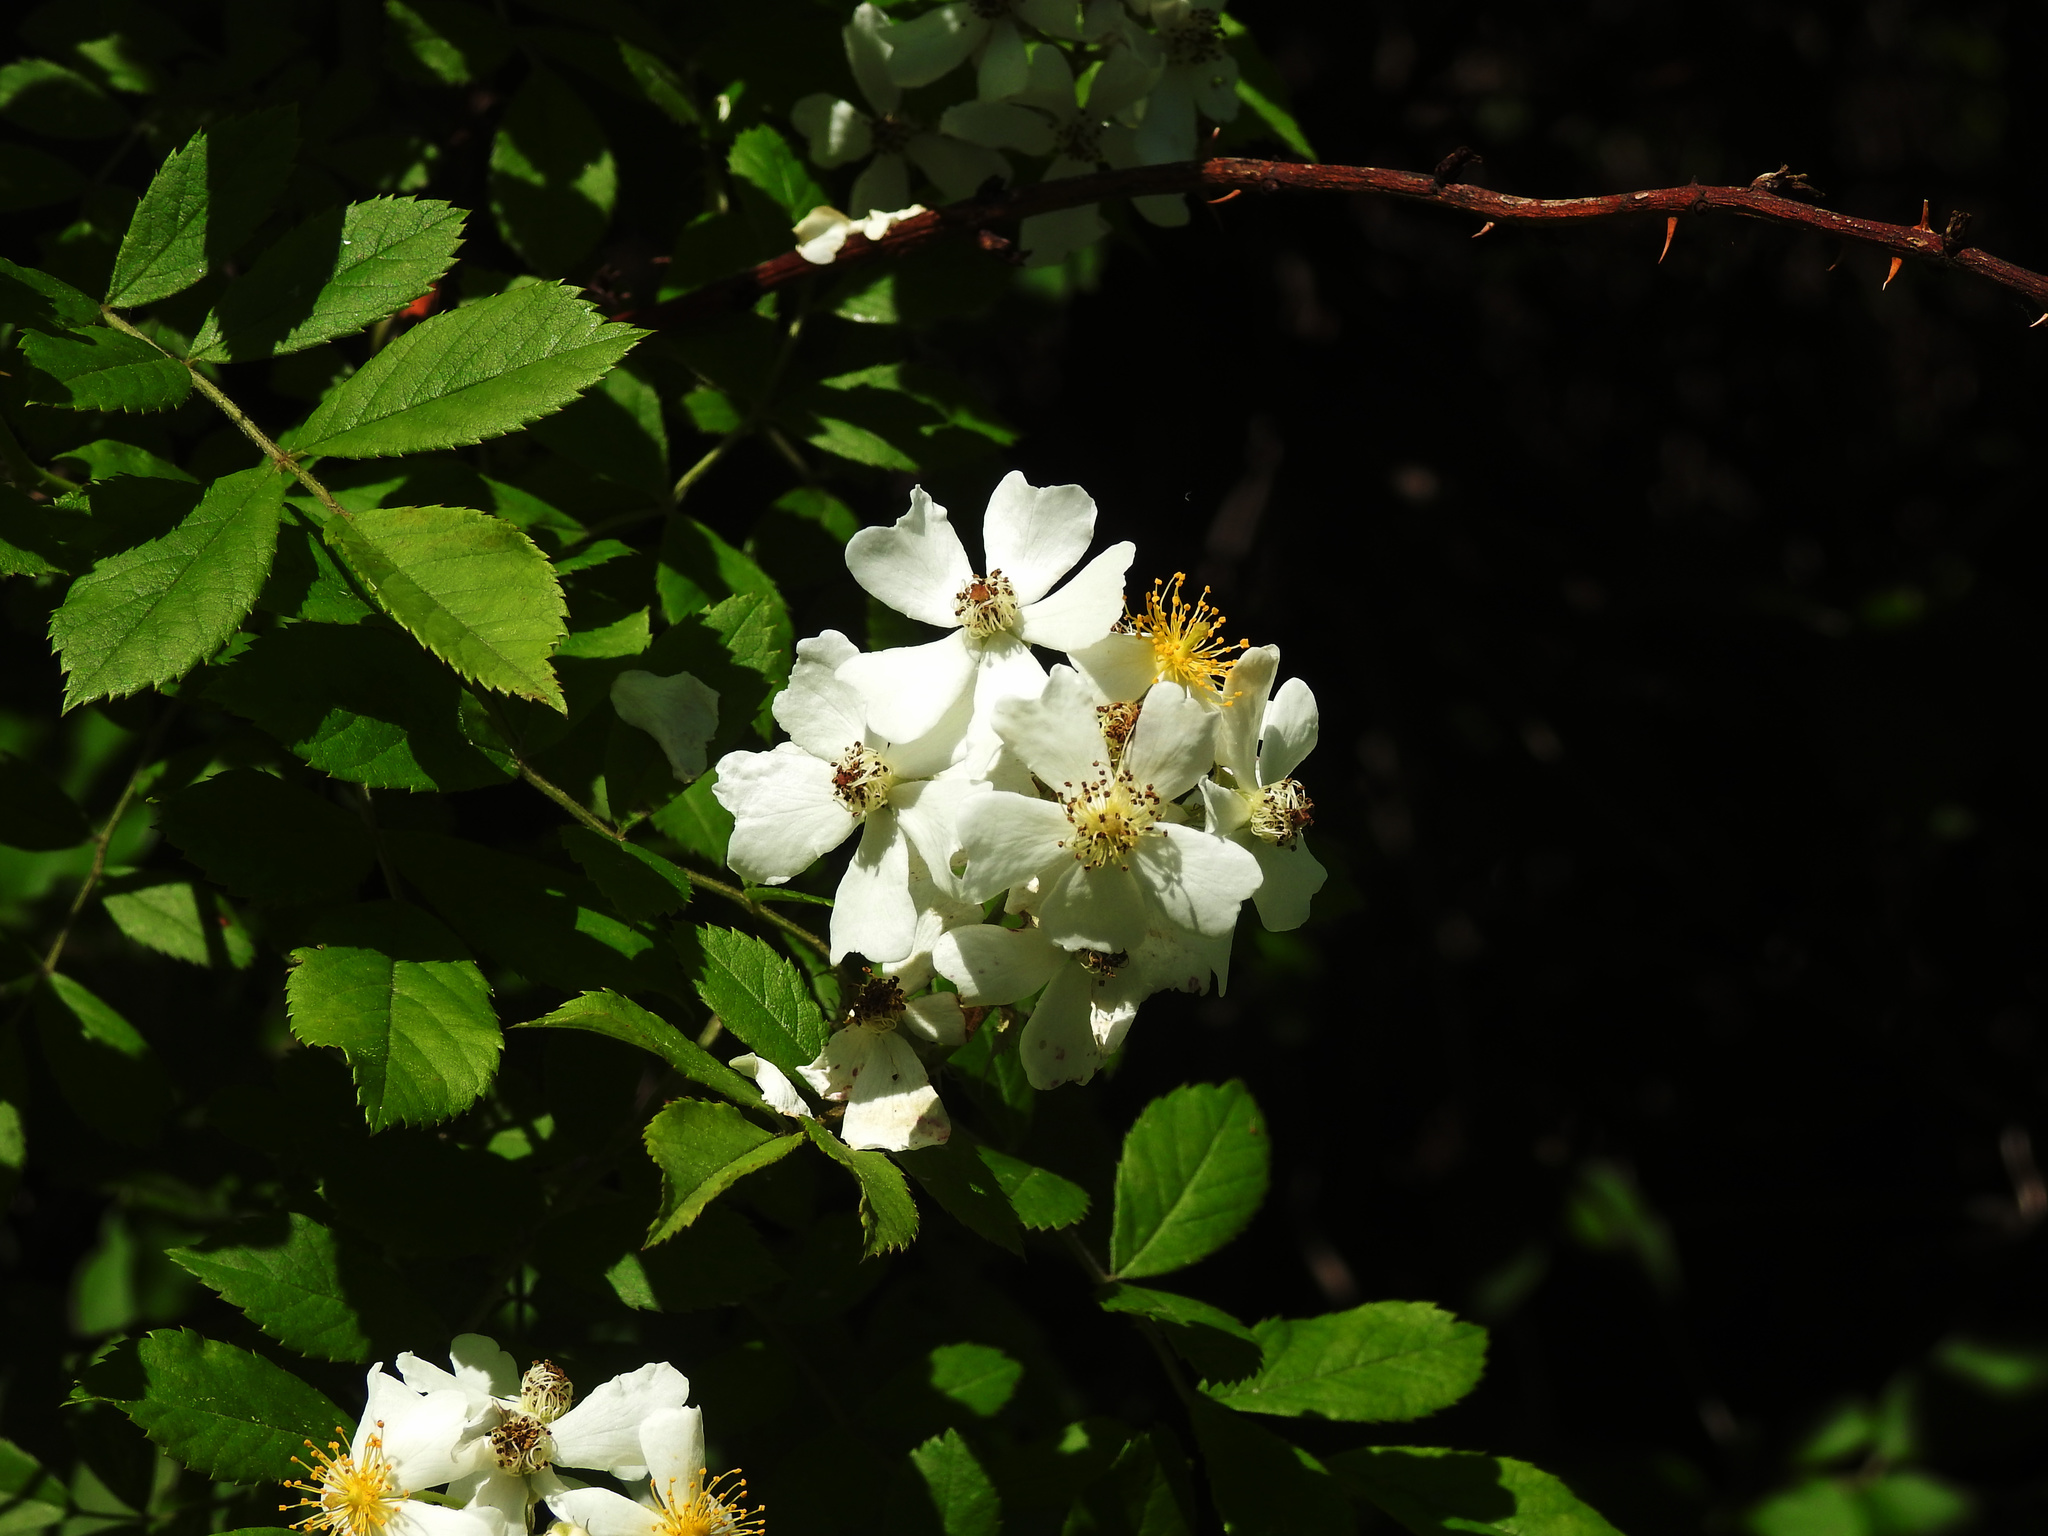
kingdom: Plantae
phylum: Tracheophyta
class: Magnoliopsida
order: Rosales
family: Rosaceae
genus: Rosa
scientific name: Rosa multiflora
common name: Multiflora rose
